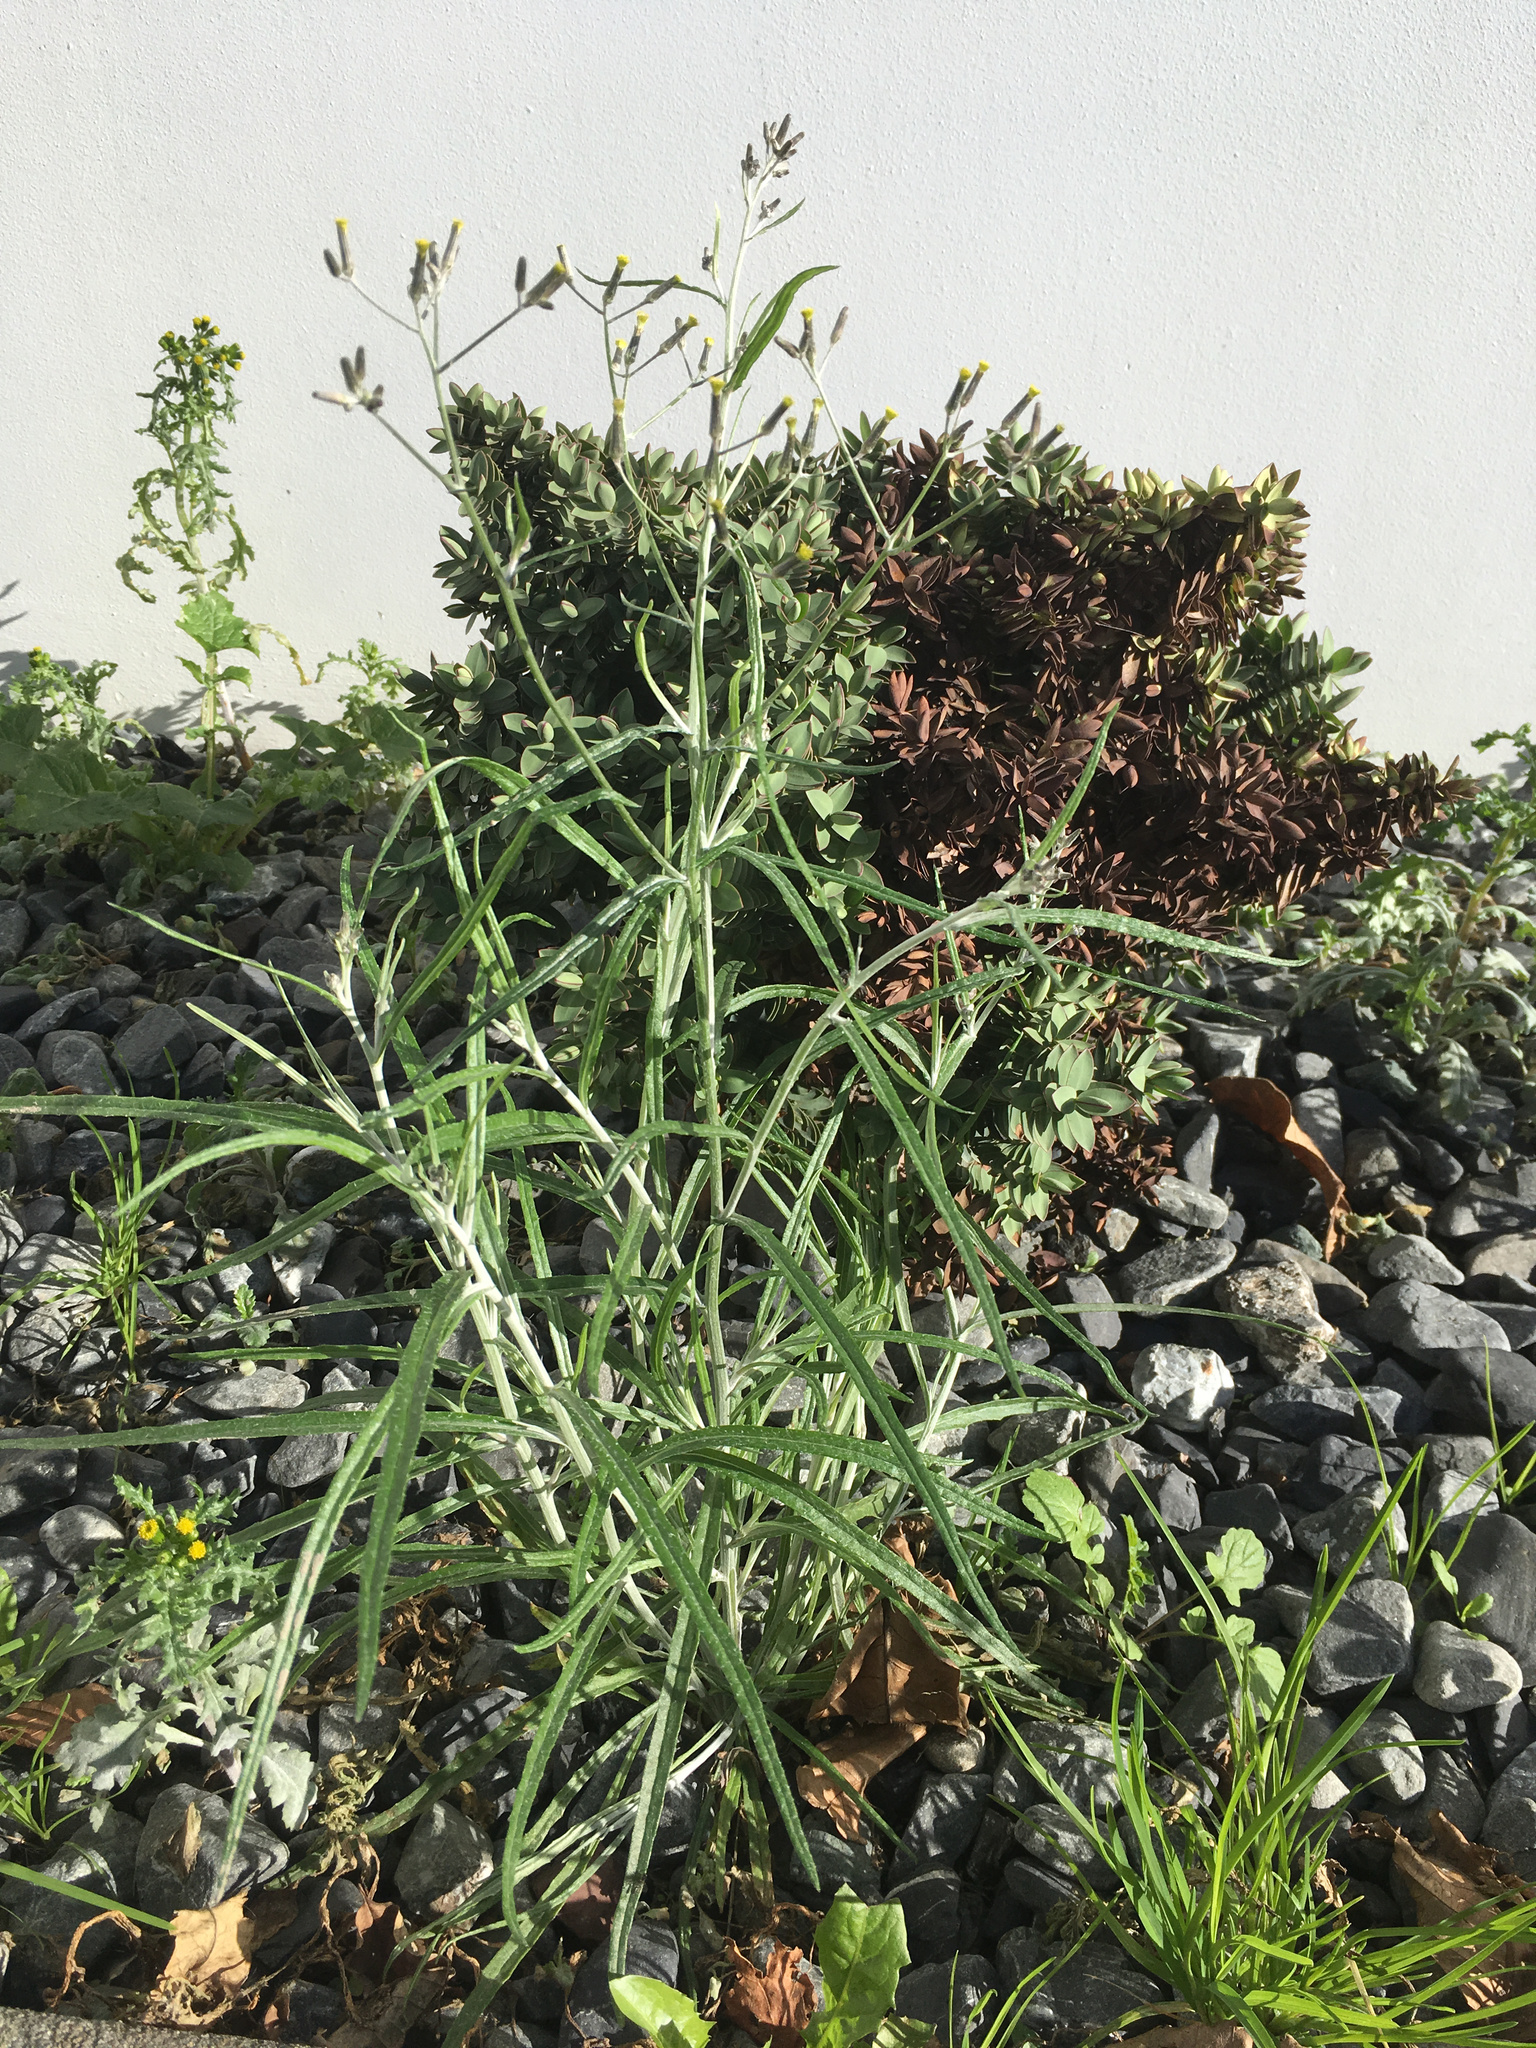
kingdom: Plantae
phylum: Tracheophyta
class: Magnoliopsida
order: Asterales
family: Asteraceae
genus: Senecio
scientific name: Senecio quadridentatus
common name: Cotton fireweed
